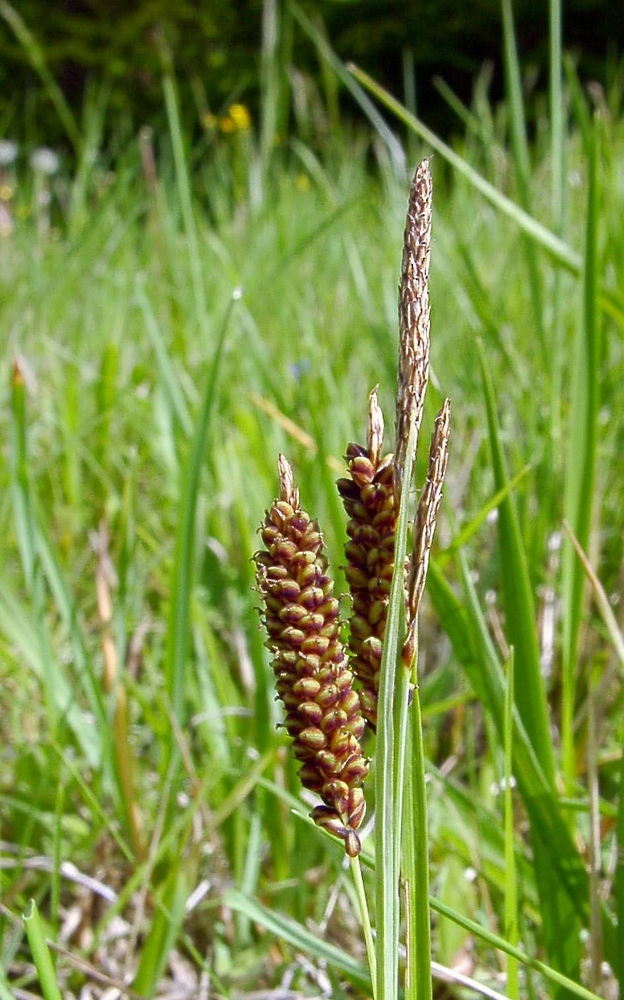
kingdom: Plantae
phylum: Tracheophyta
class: Liliopsida
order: Poales
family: Cyperaceae
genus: Carex
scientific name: Carex flacca
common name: Glaucous sedge
